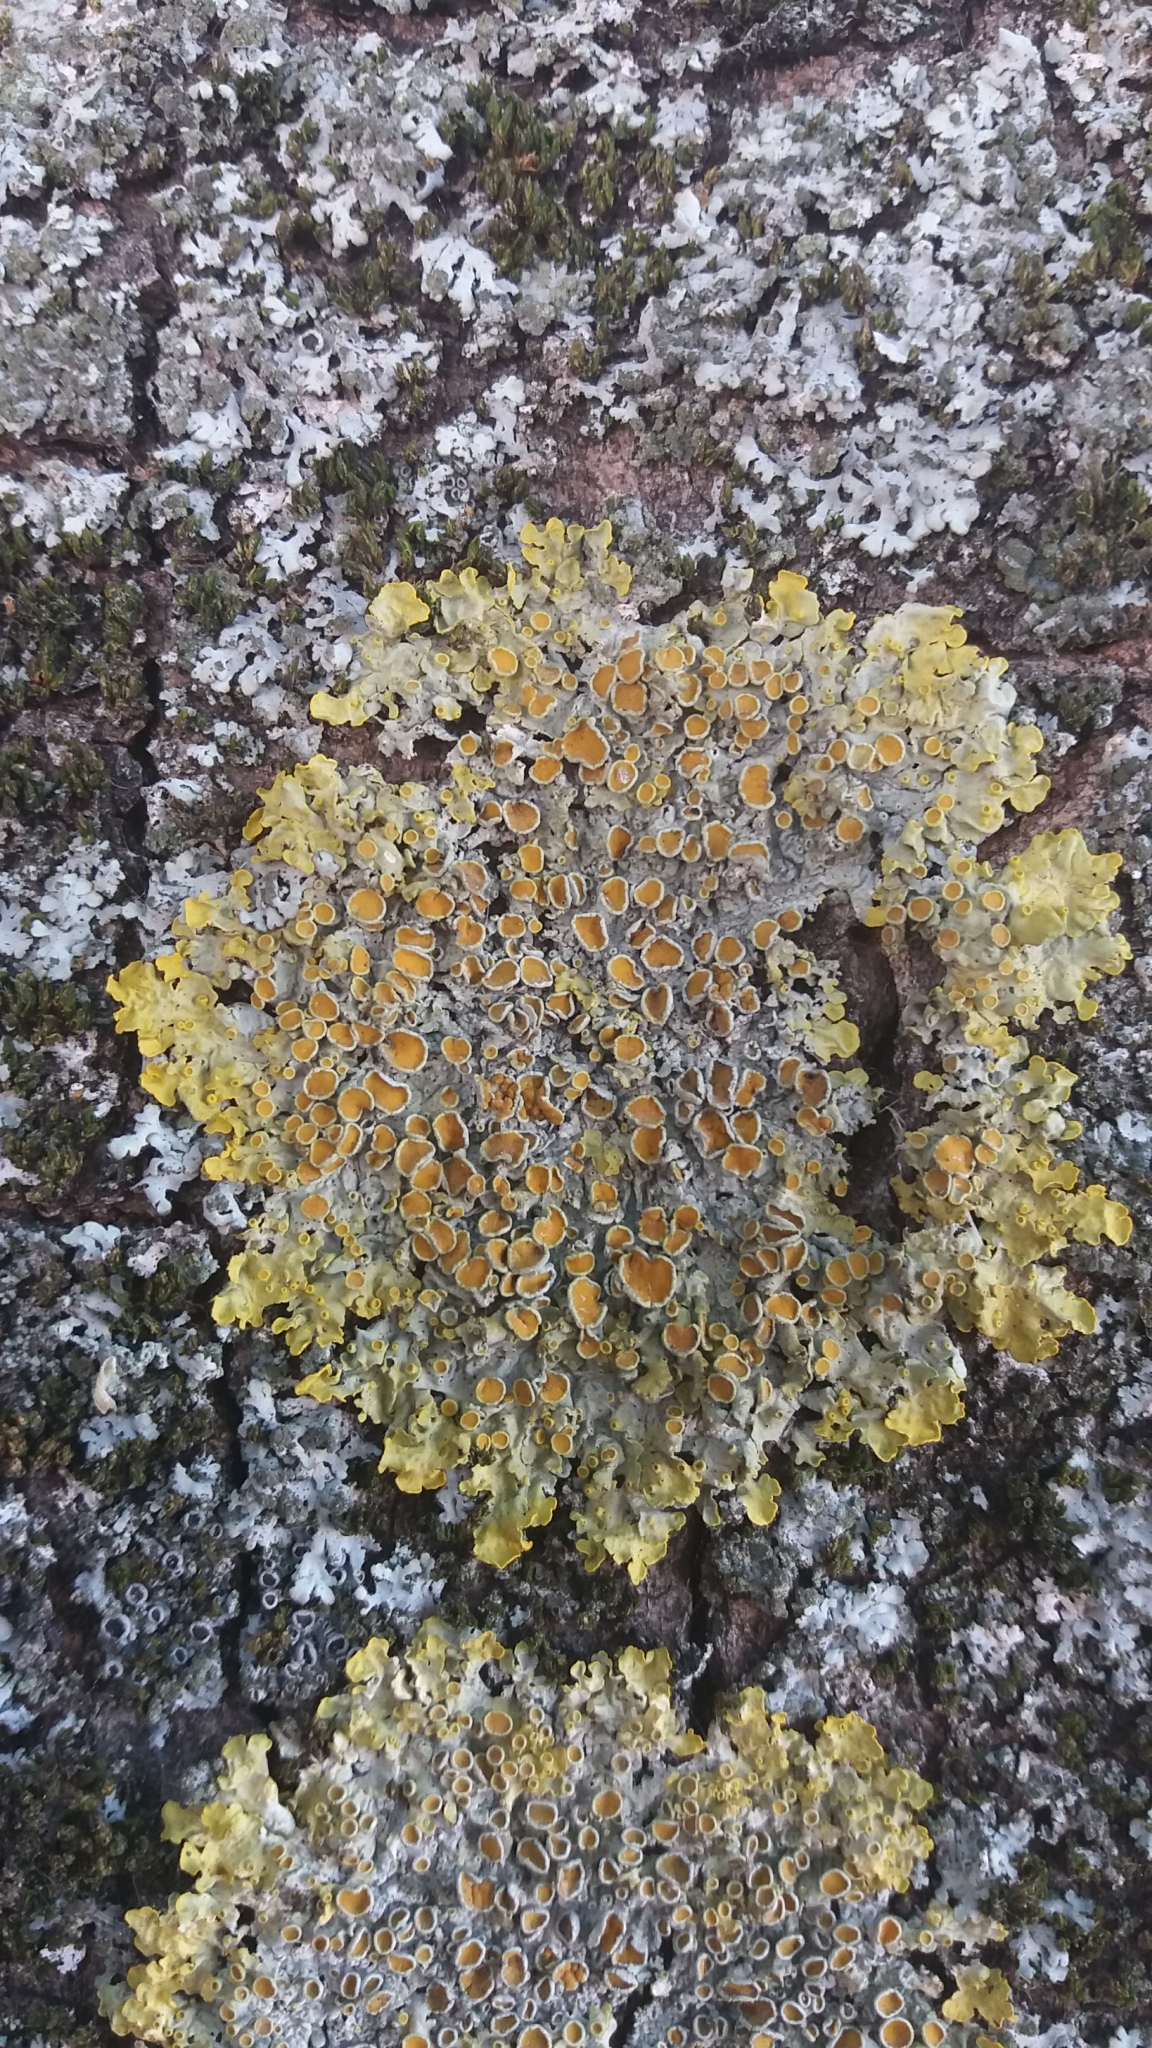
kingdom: Fungi
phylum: Ascomycota
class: Lecanoromycetes
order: Teloschistales
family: Teloschistaceae
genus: Xanthoria
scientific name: Xanthoria parietina
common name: Common orange lichen
